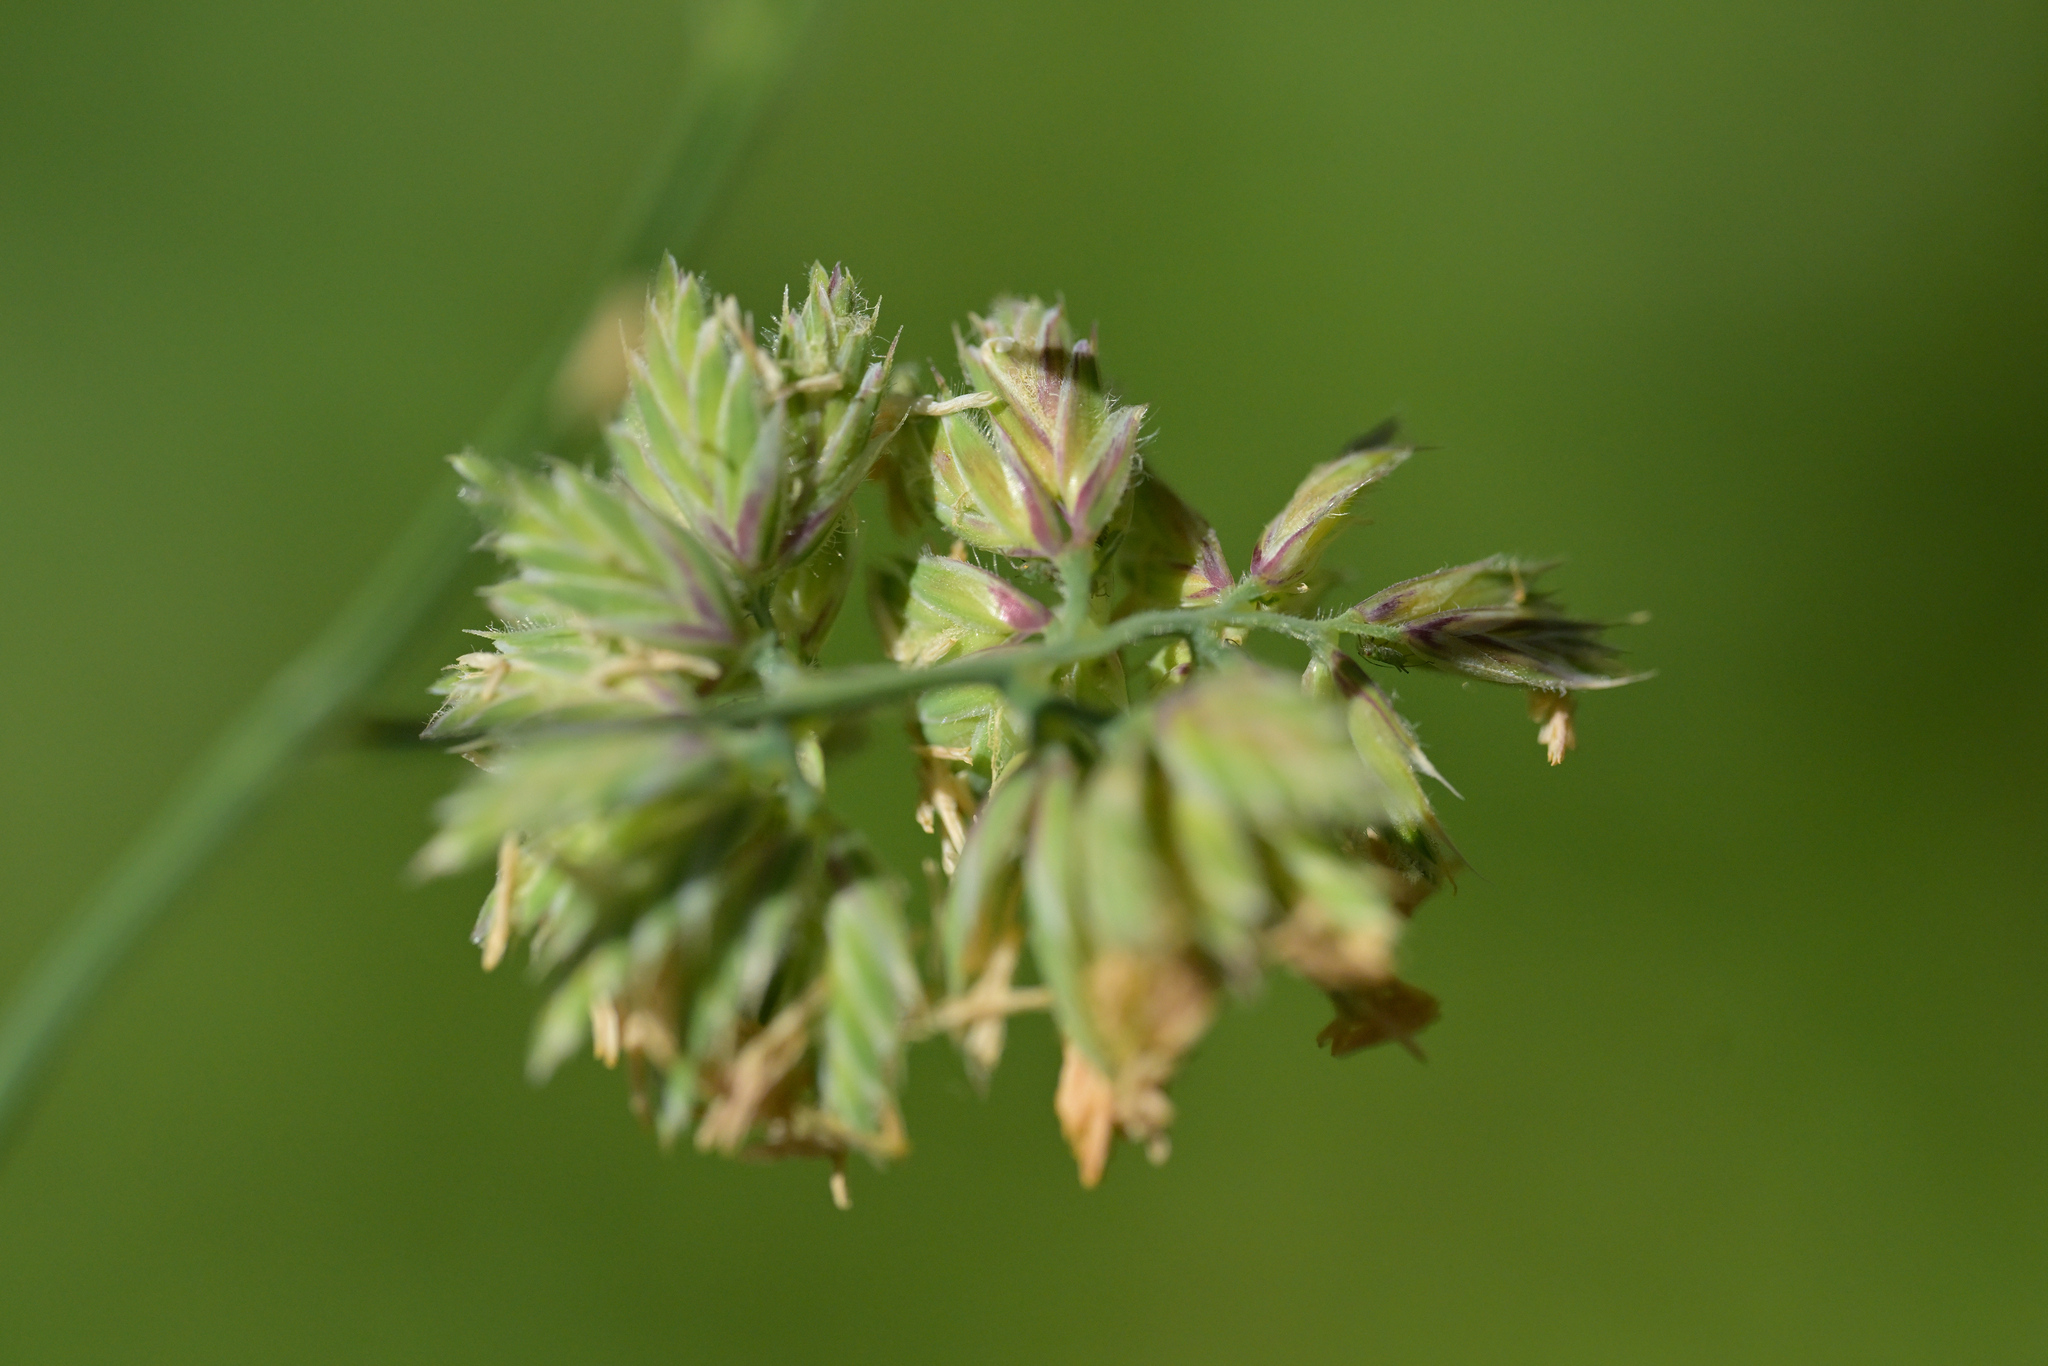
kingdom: Plantae
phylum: Tracheophyta
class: Liliopsida
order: Poales
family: Poaceae
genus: Dactylis
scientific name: Dactylis glomerata
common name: Orchardgrass
